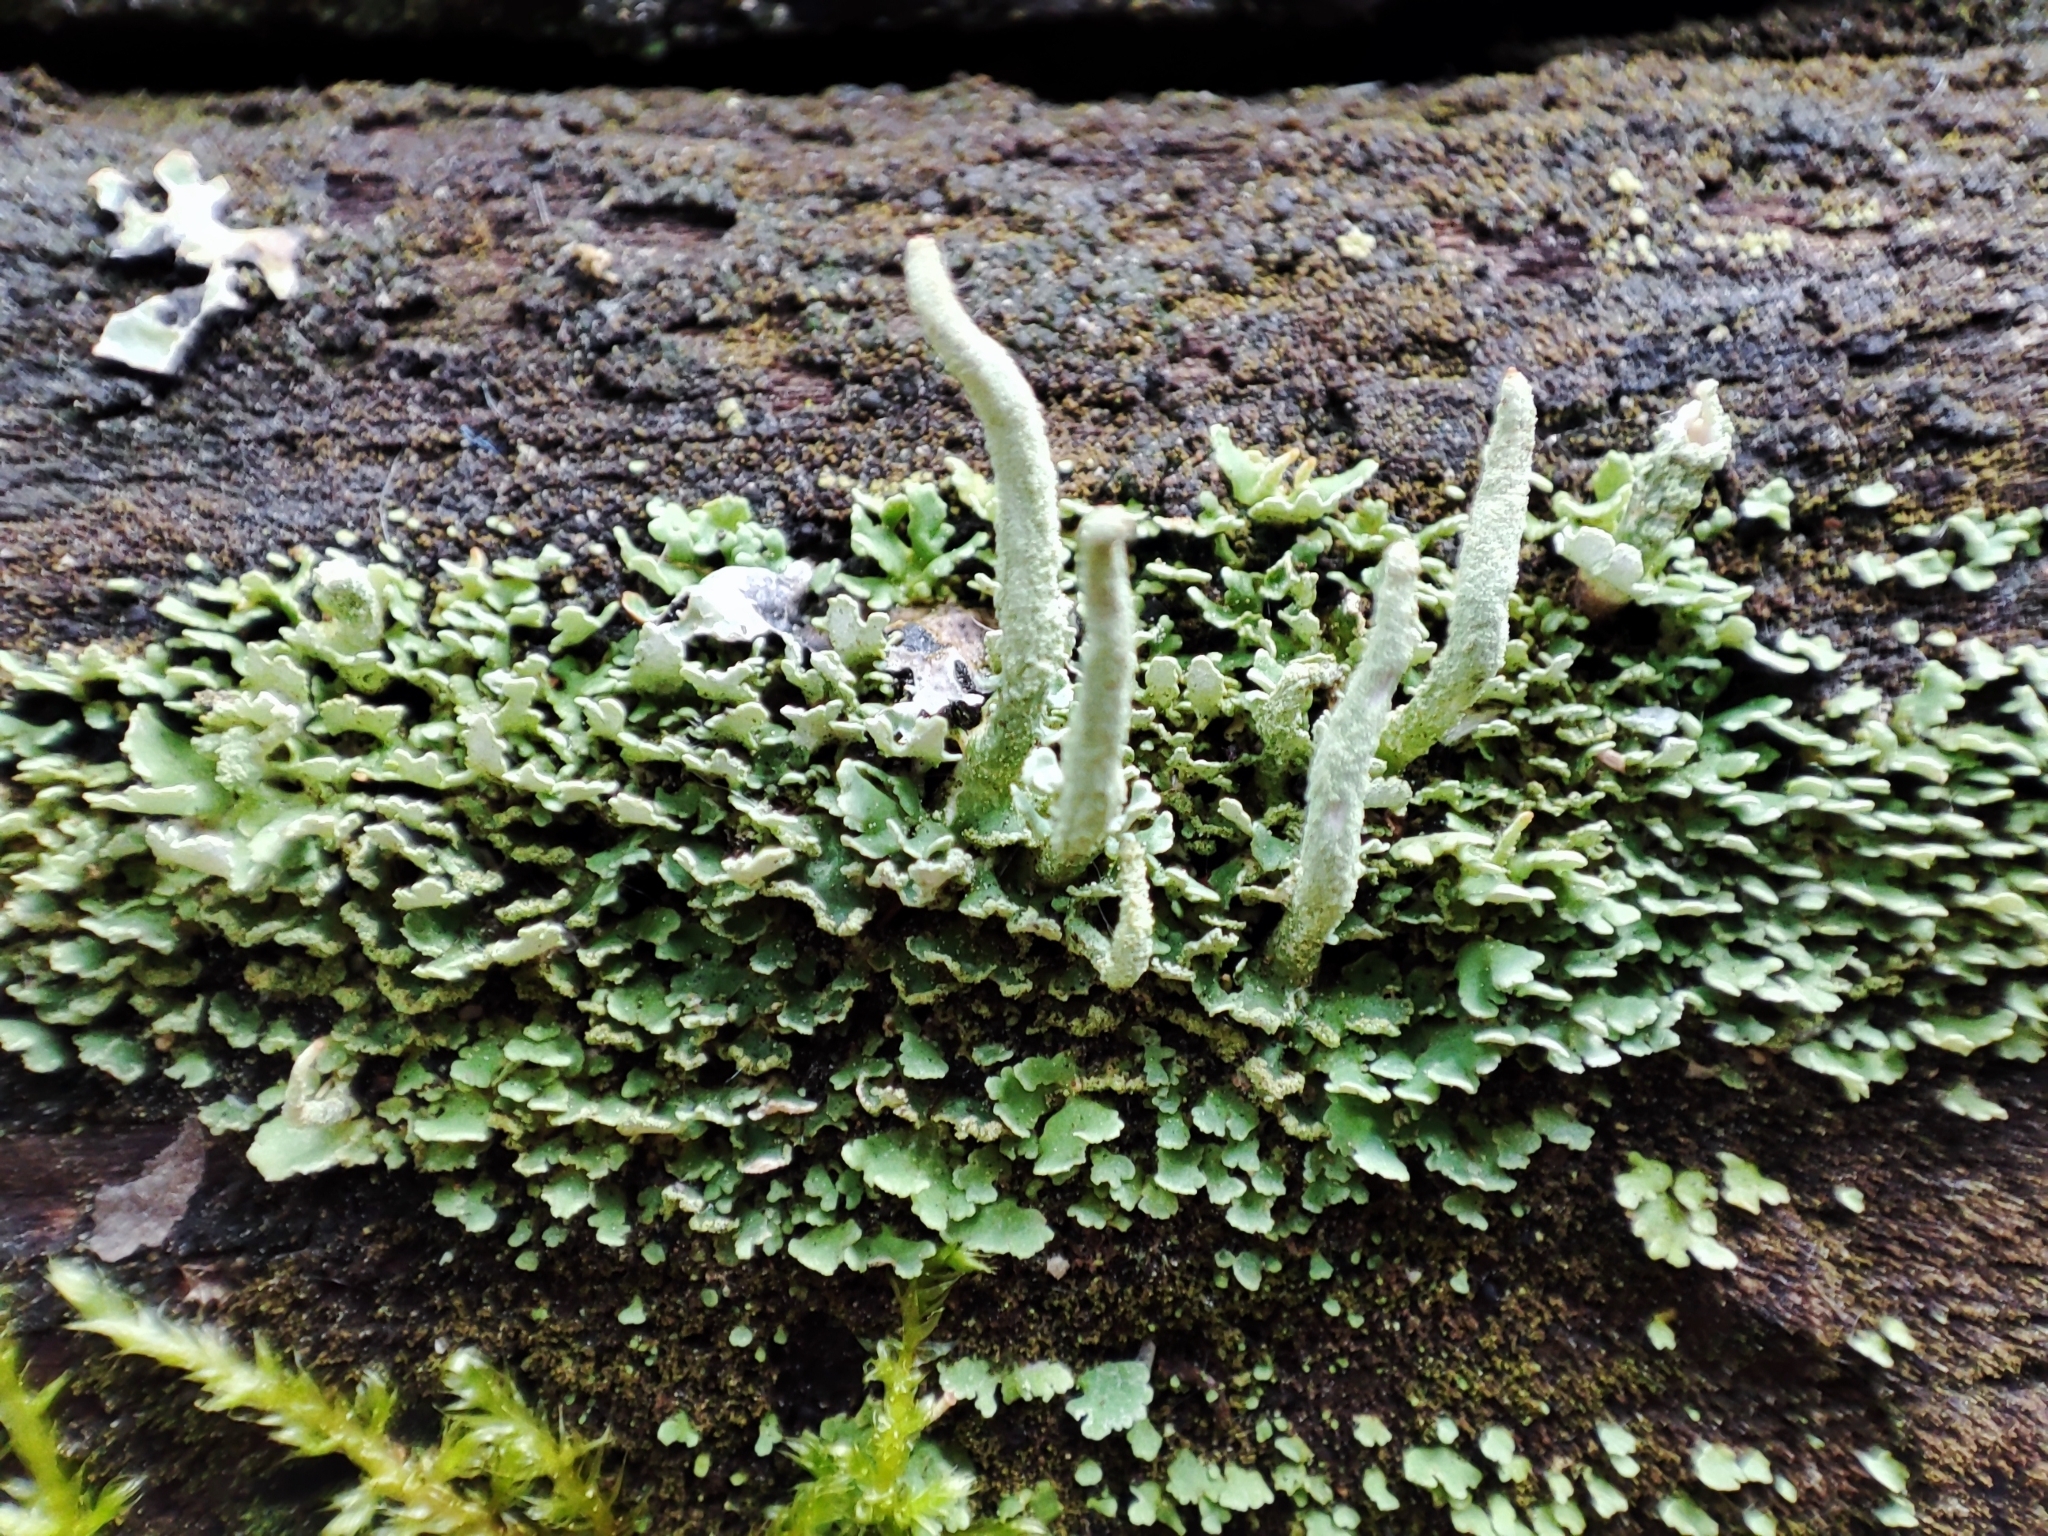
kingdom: Fungi
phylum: Ascomycota
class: Lecanoromycetes
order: Lecanorales
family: Cladoniaceae
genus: Cladonia
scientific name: Cladonia coniocraea
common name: Common powderhorn
